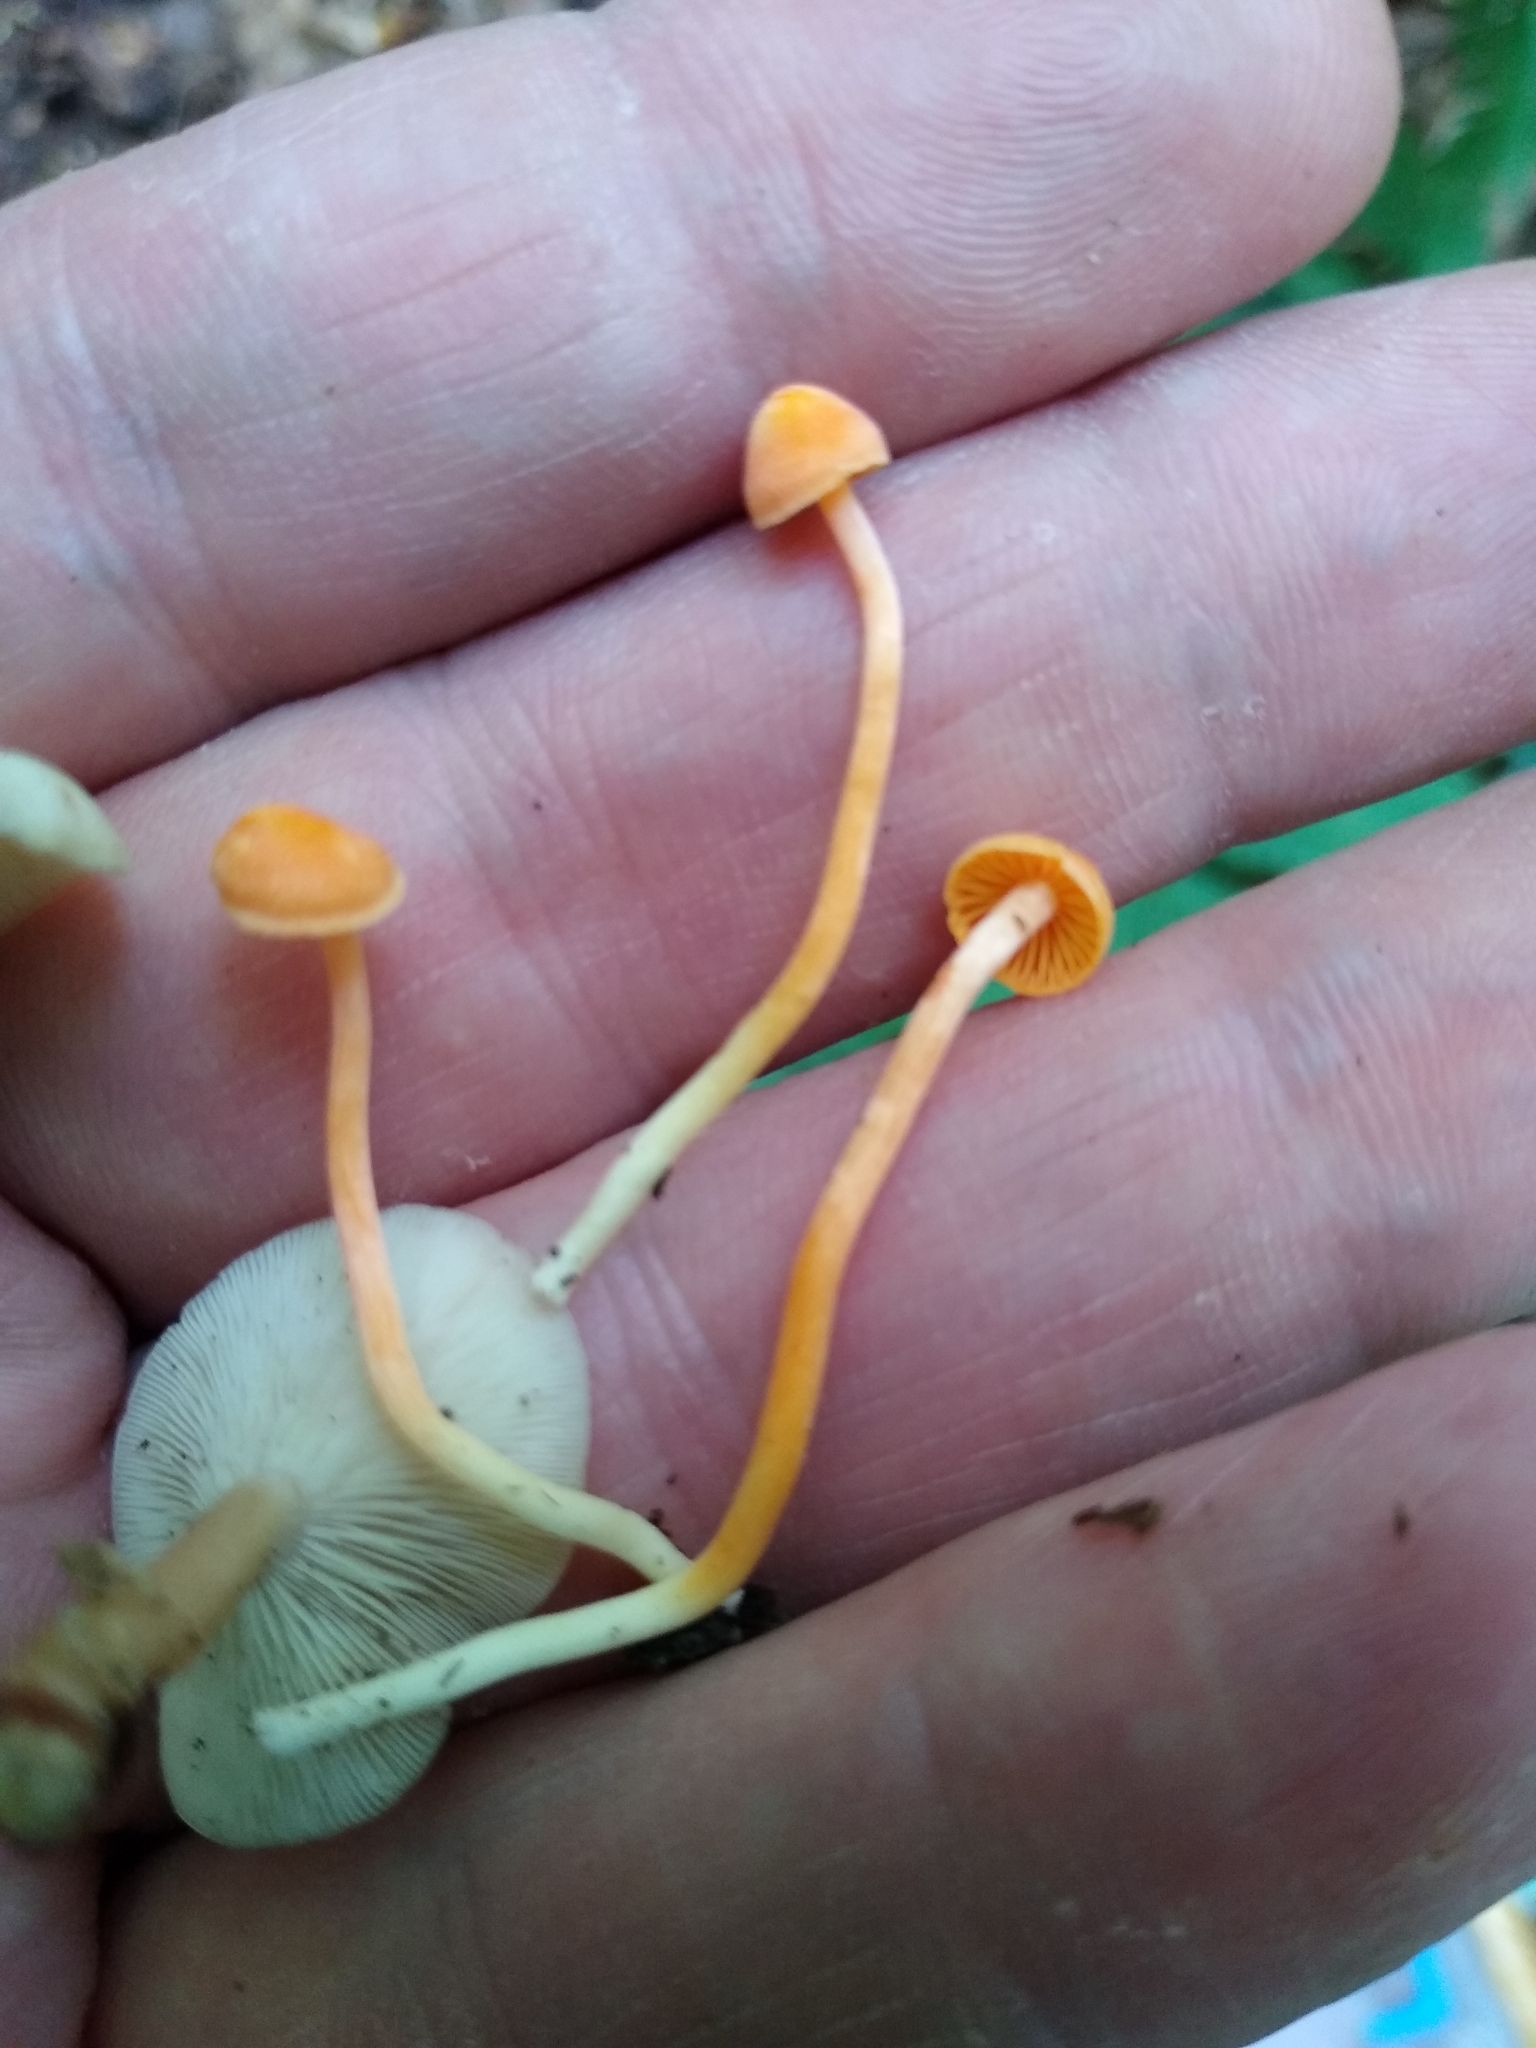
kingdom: Fungi
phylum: Basidiomycota
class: Agaricomycetes
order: Agaricales
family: Hygrophoraceae
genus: Hygrophorus
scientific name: Hygrophorus
